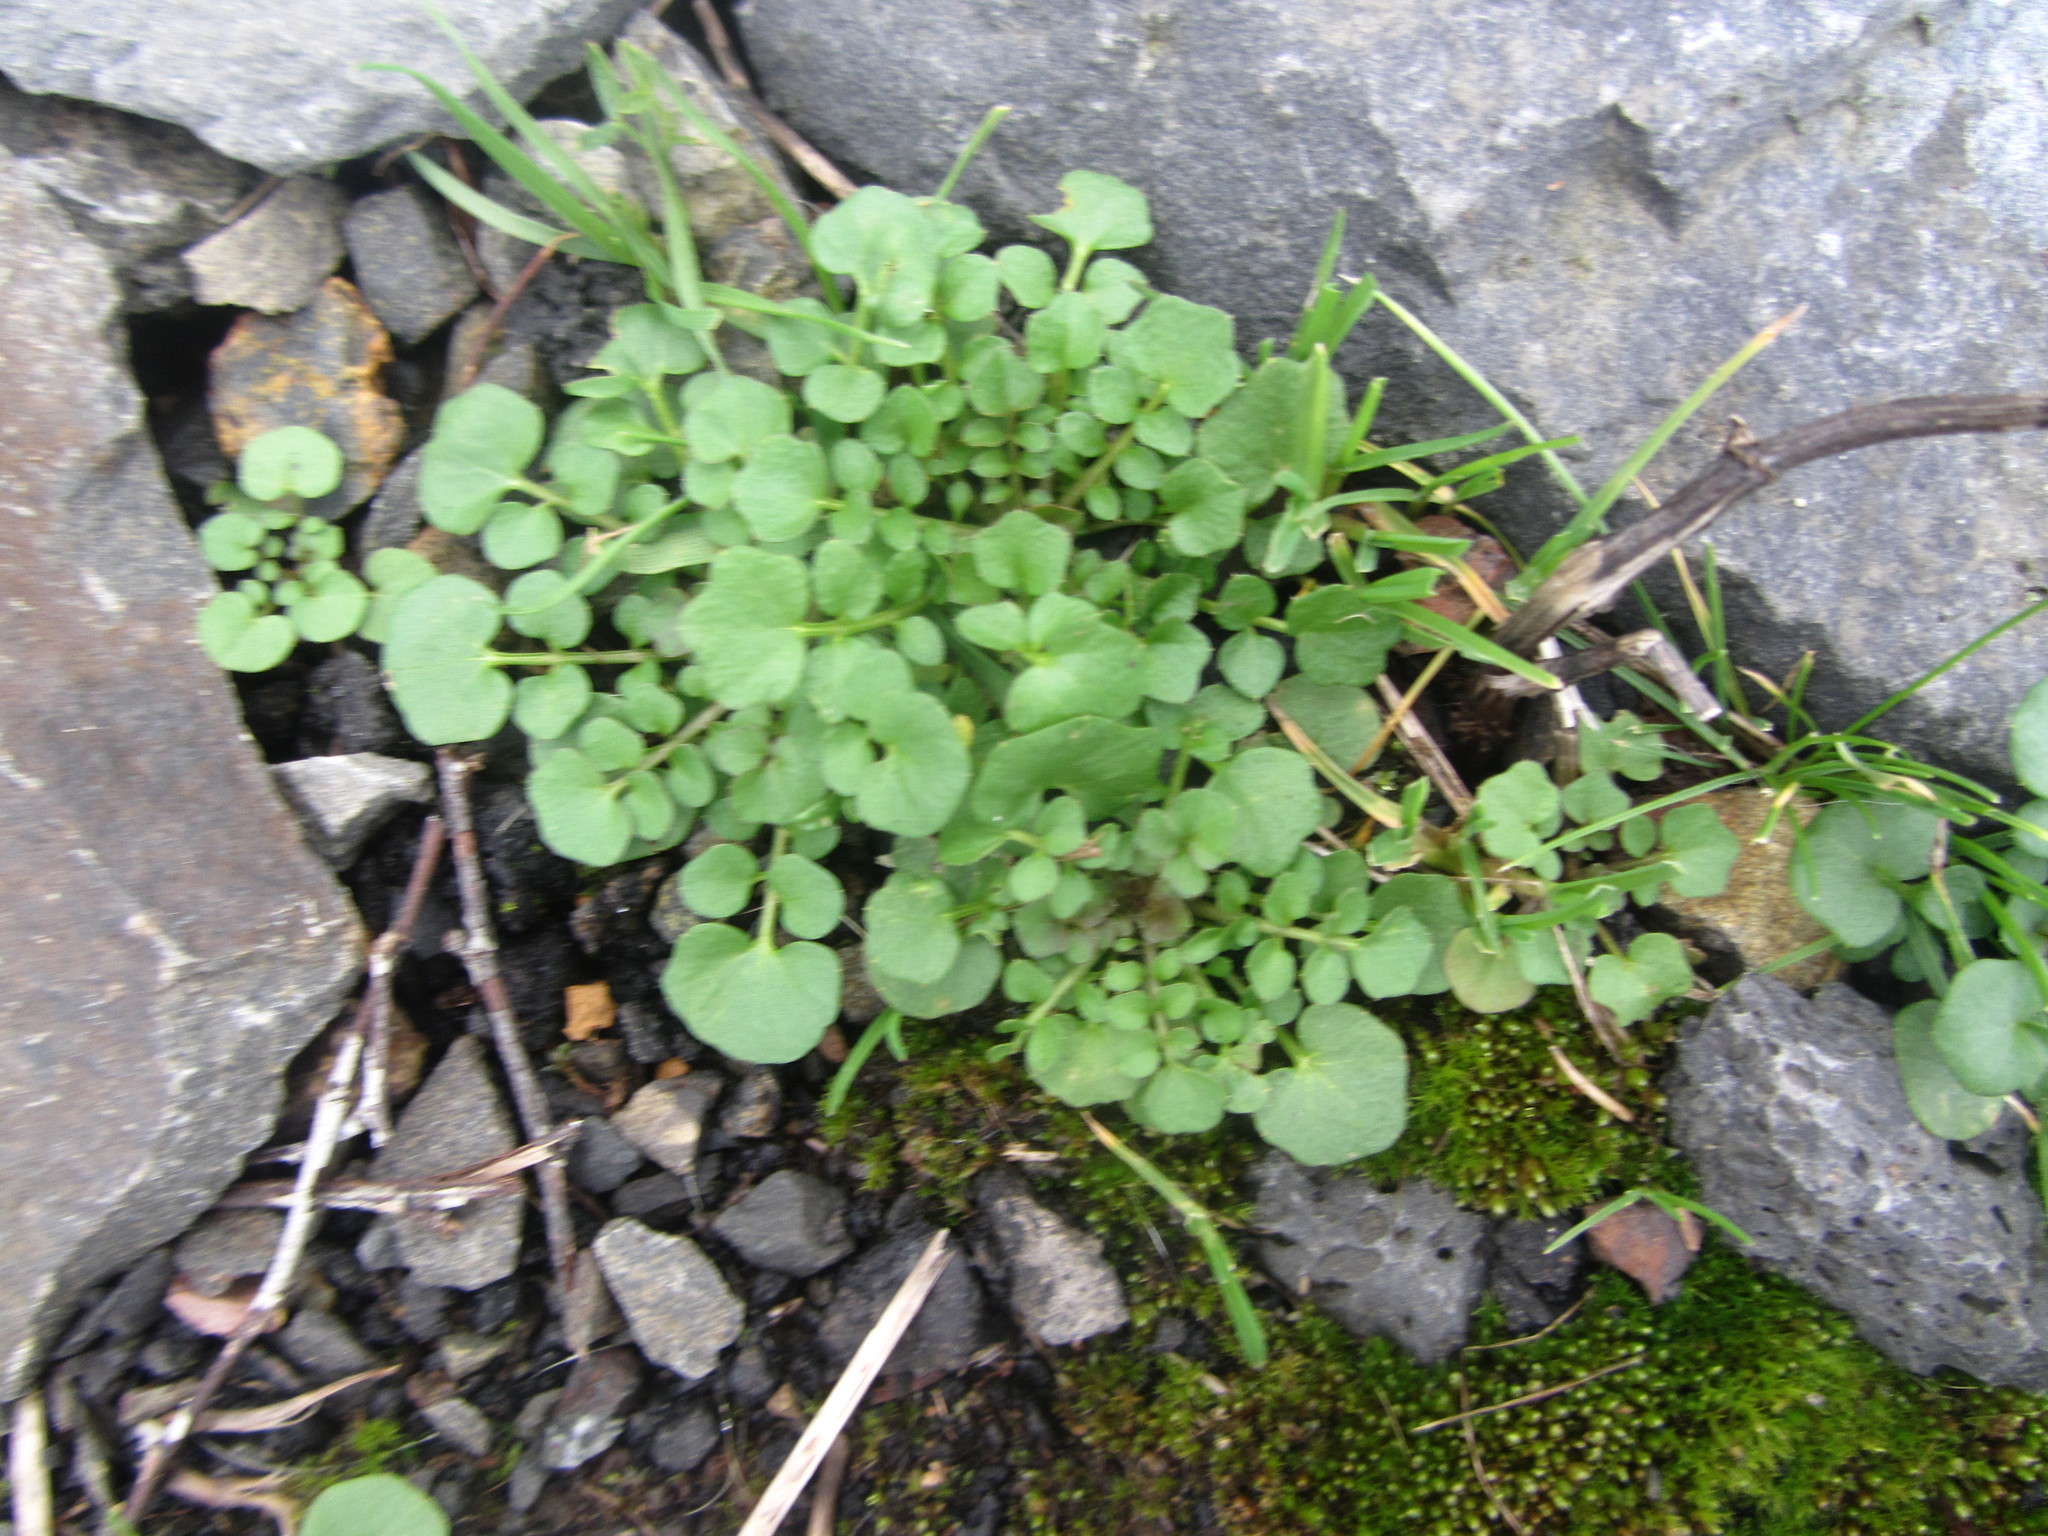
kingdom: Plantae
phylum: Tracheophyta
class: Magnoliopsida
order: Brassicales
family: Brassicaceae
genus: Cardamine
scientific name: Cardamine hirsuta
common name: Hairy bittercress
